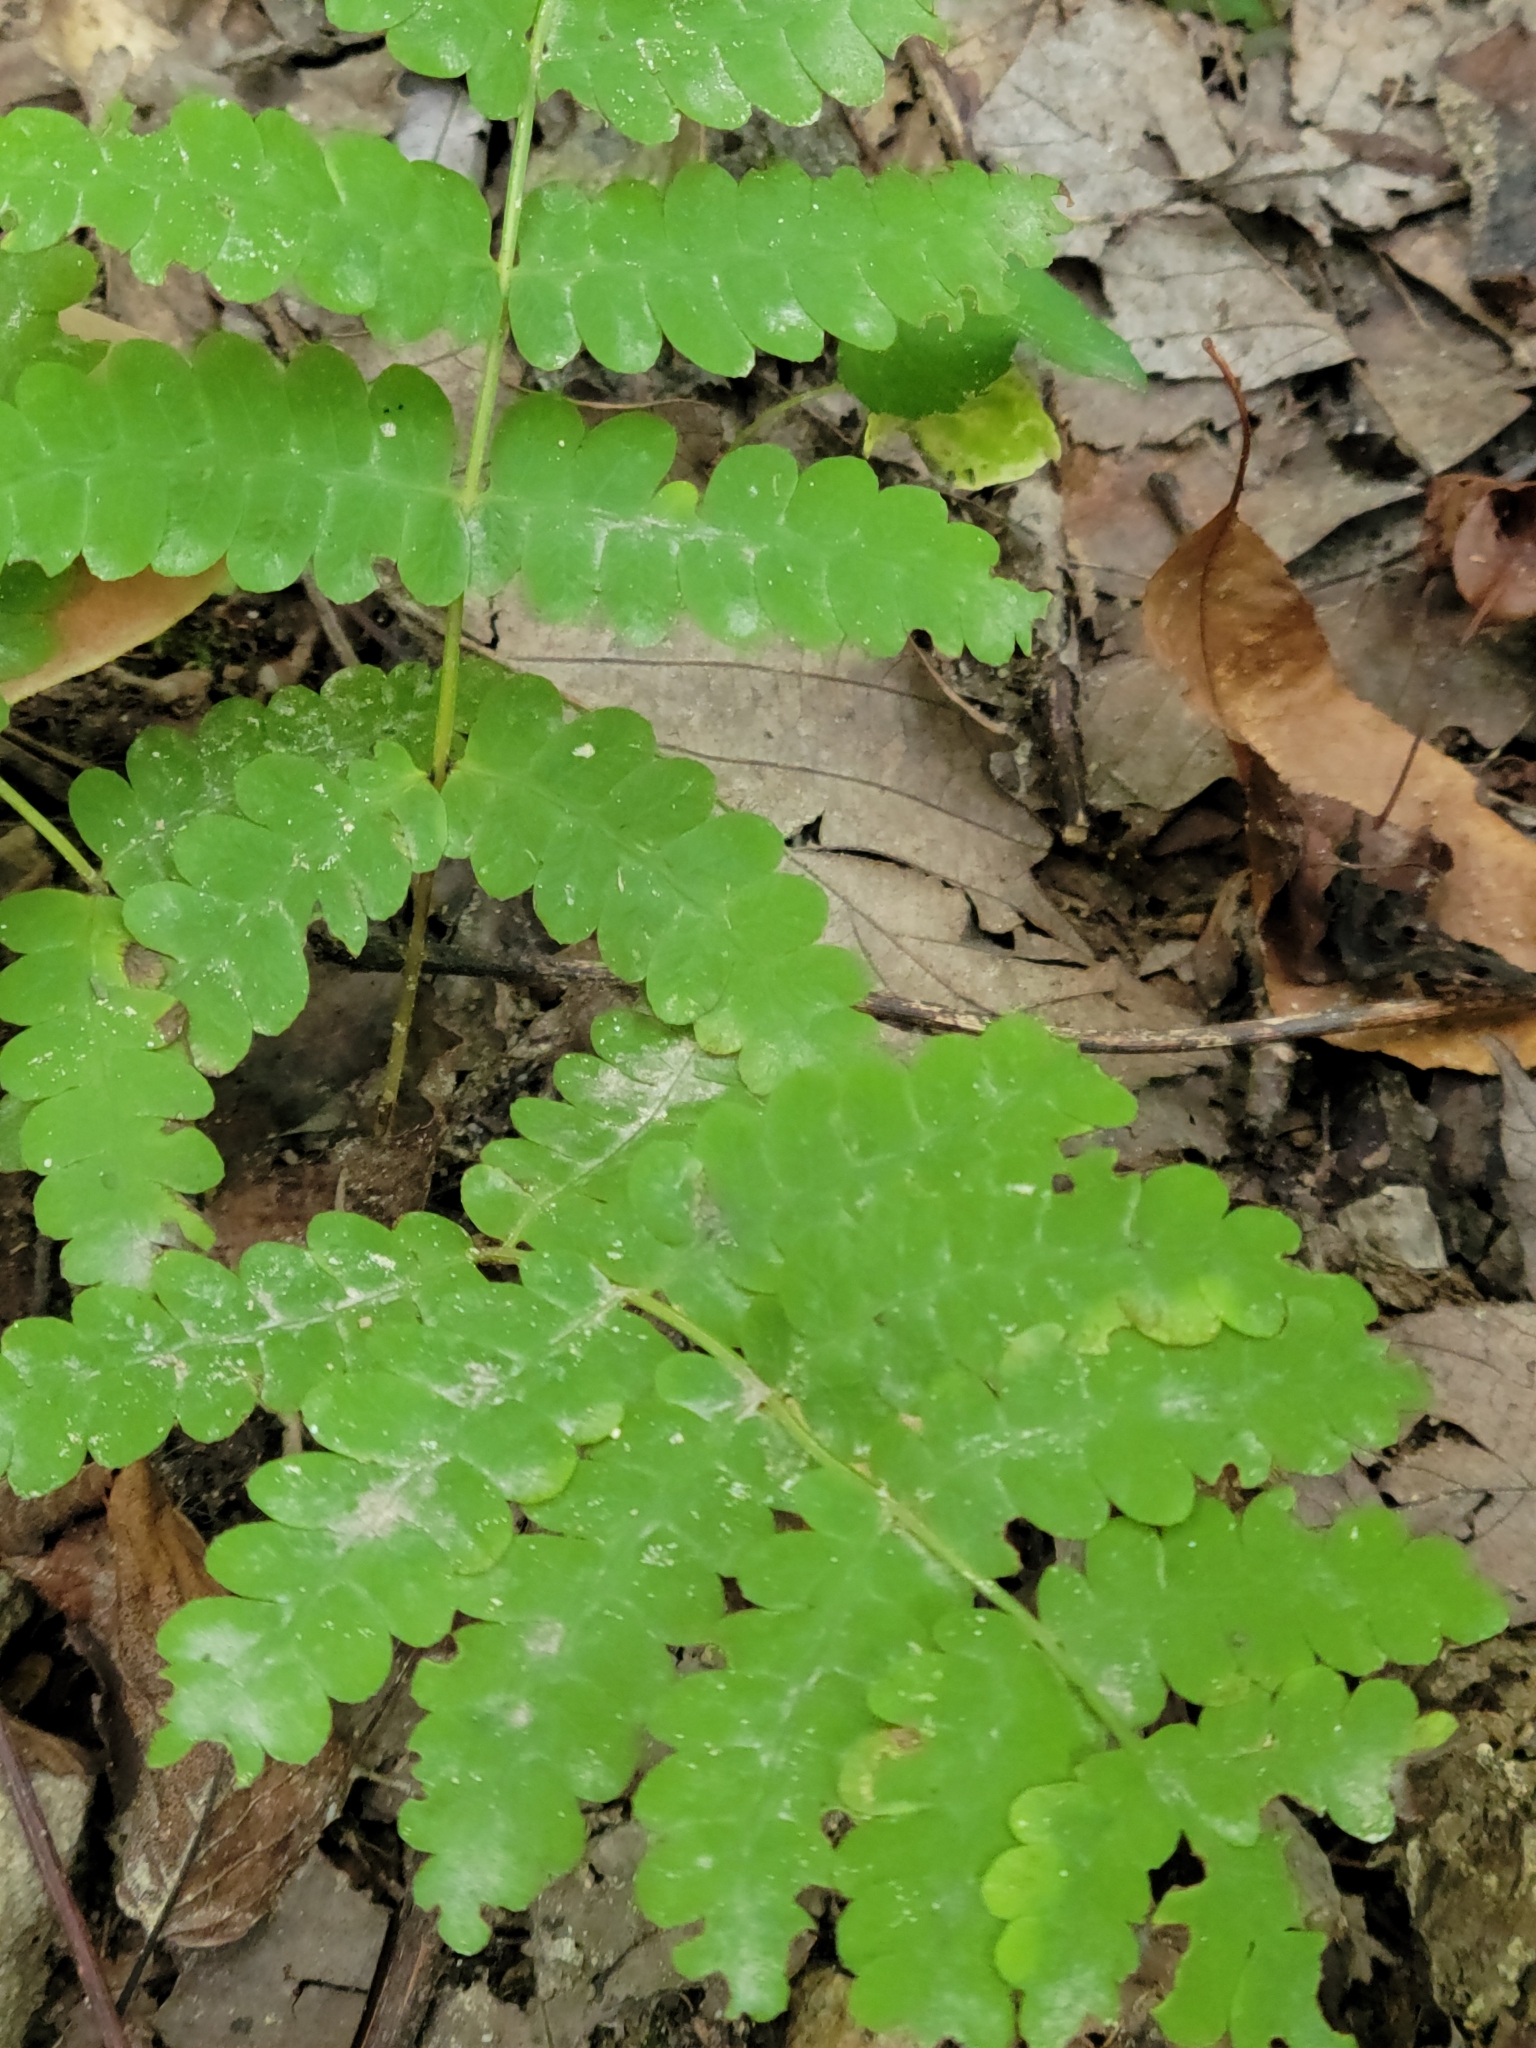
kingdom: Plantae
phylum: Tracheophyta
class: Polypodiopsida
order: Osmundales
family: Osmundaceae
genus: Claytosmunda
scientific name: Claytosmunda claytoniana
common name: Clayton's fern
